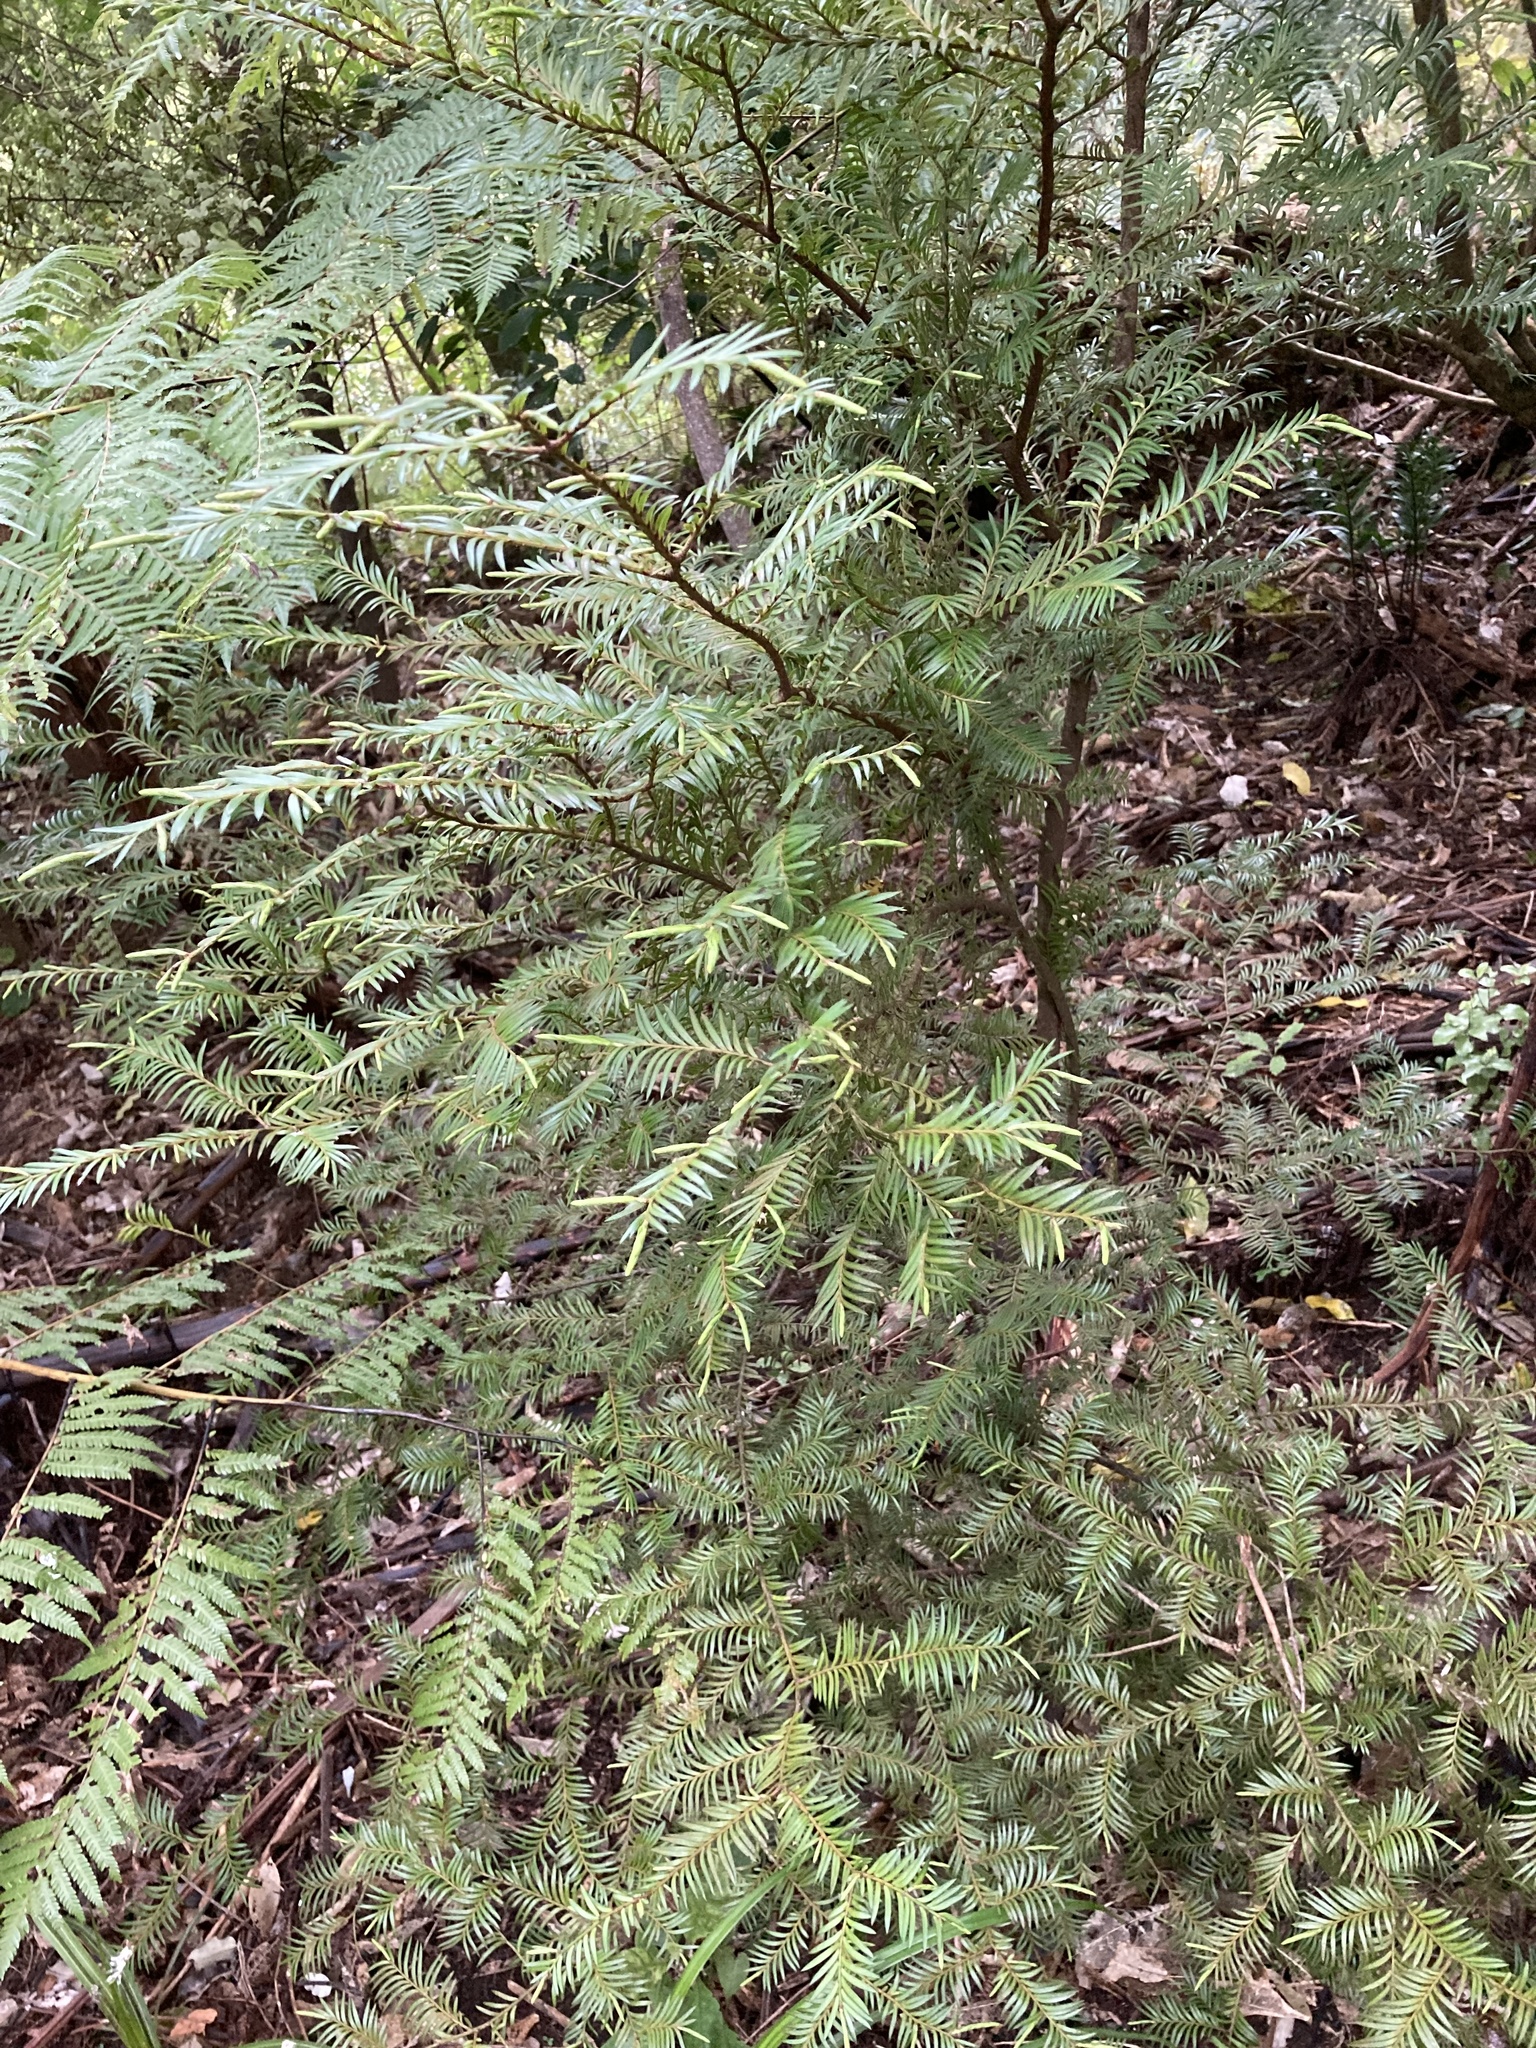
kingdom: Plantae
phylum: Tracheophyta
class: Pinopsida
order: Pinales
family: Podocarpaceae
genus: Prumnopitys
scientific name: Prumnopitys ferruginea
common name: Brown pine
